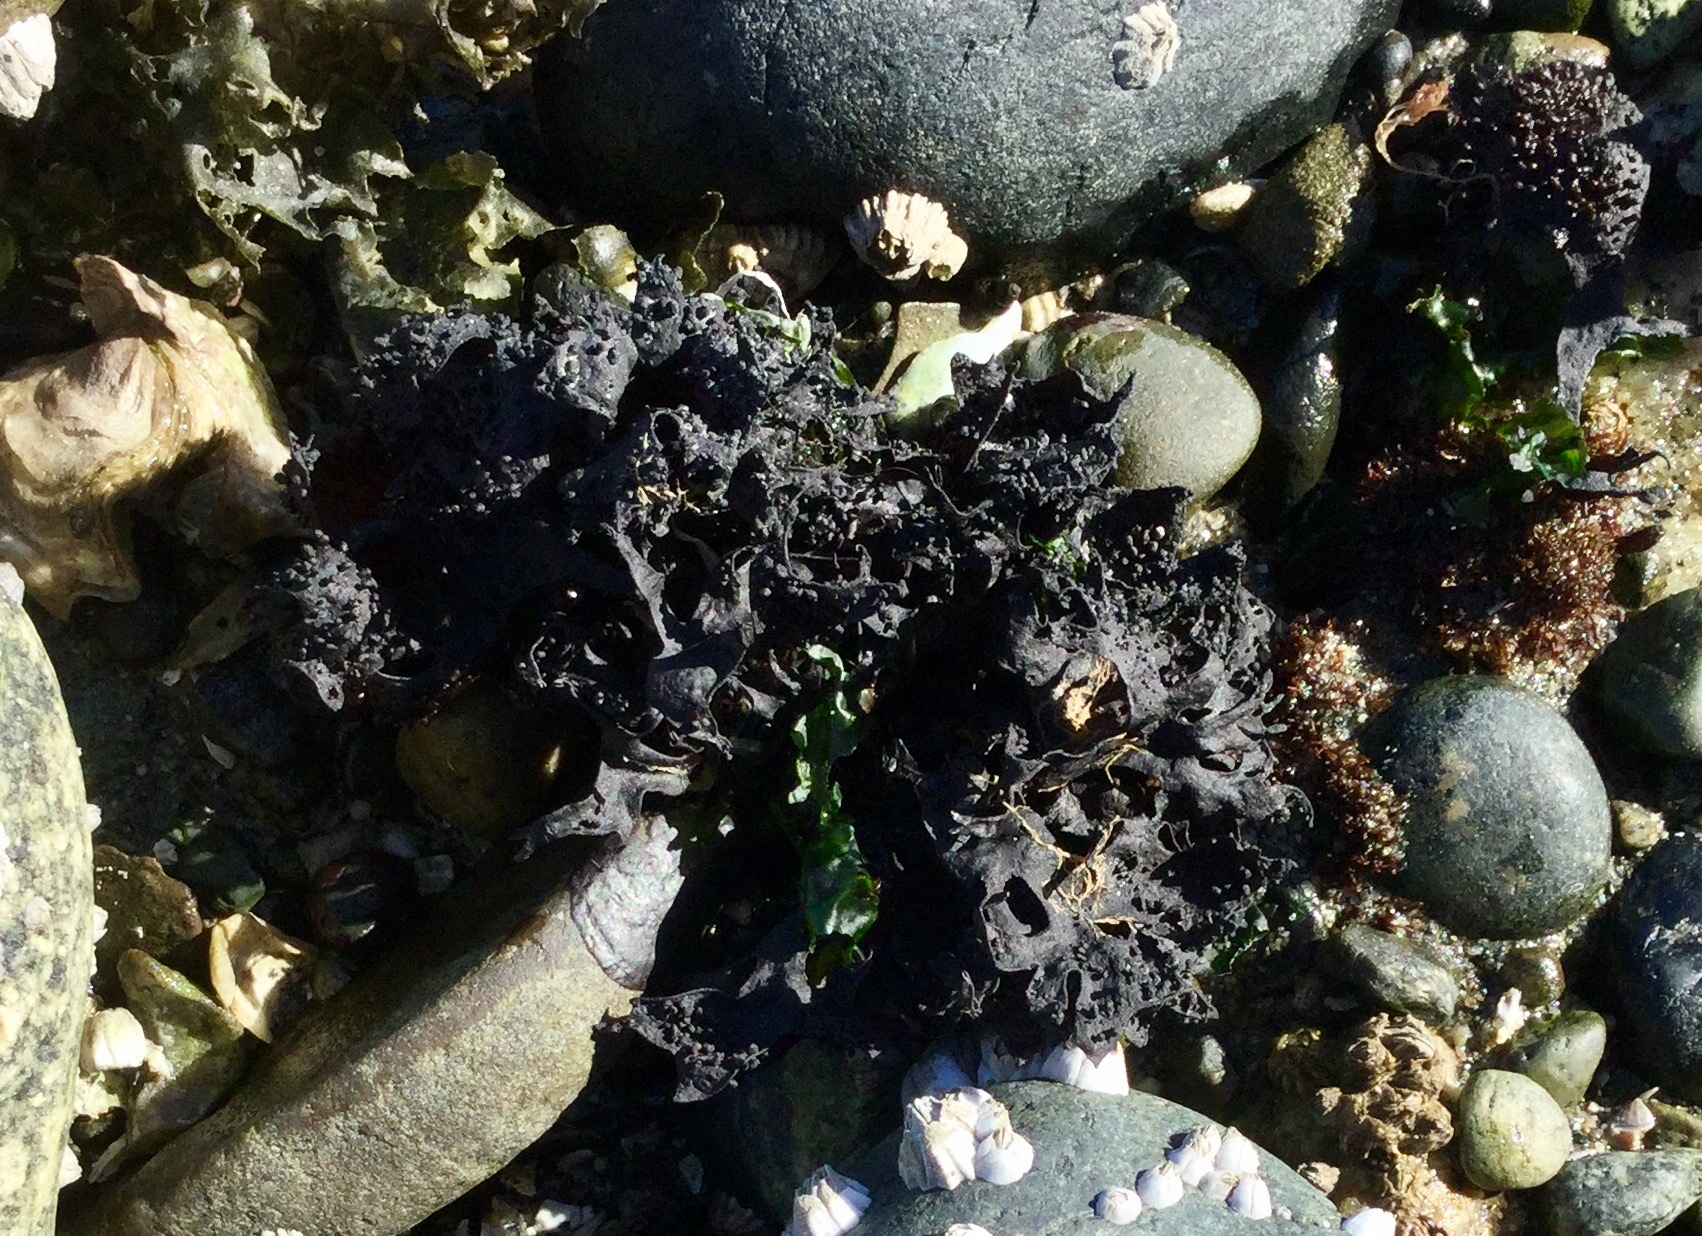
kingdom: Plantae
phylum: Rhodophyta
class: Florideophyceae
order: Gigartinales
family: Phyllophoraceae
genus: Mastocarpus
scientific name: Mastocarpus alaskensis
